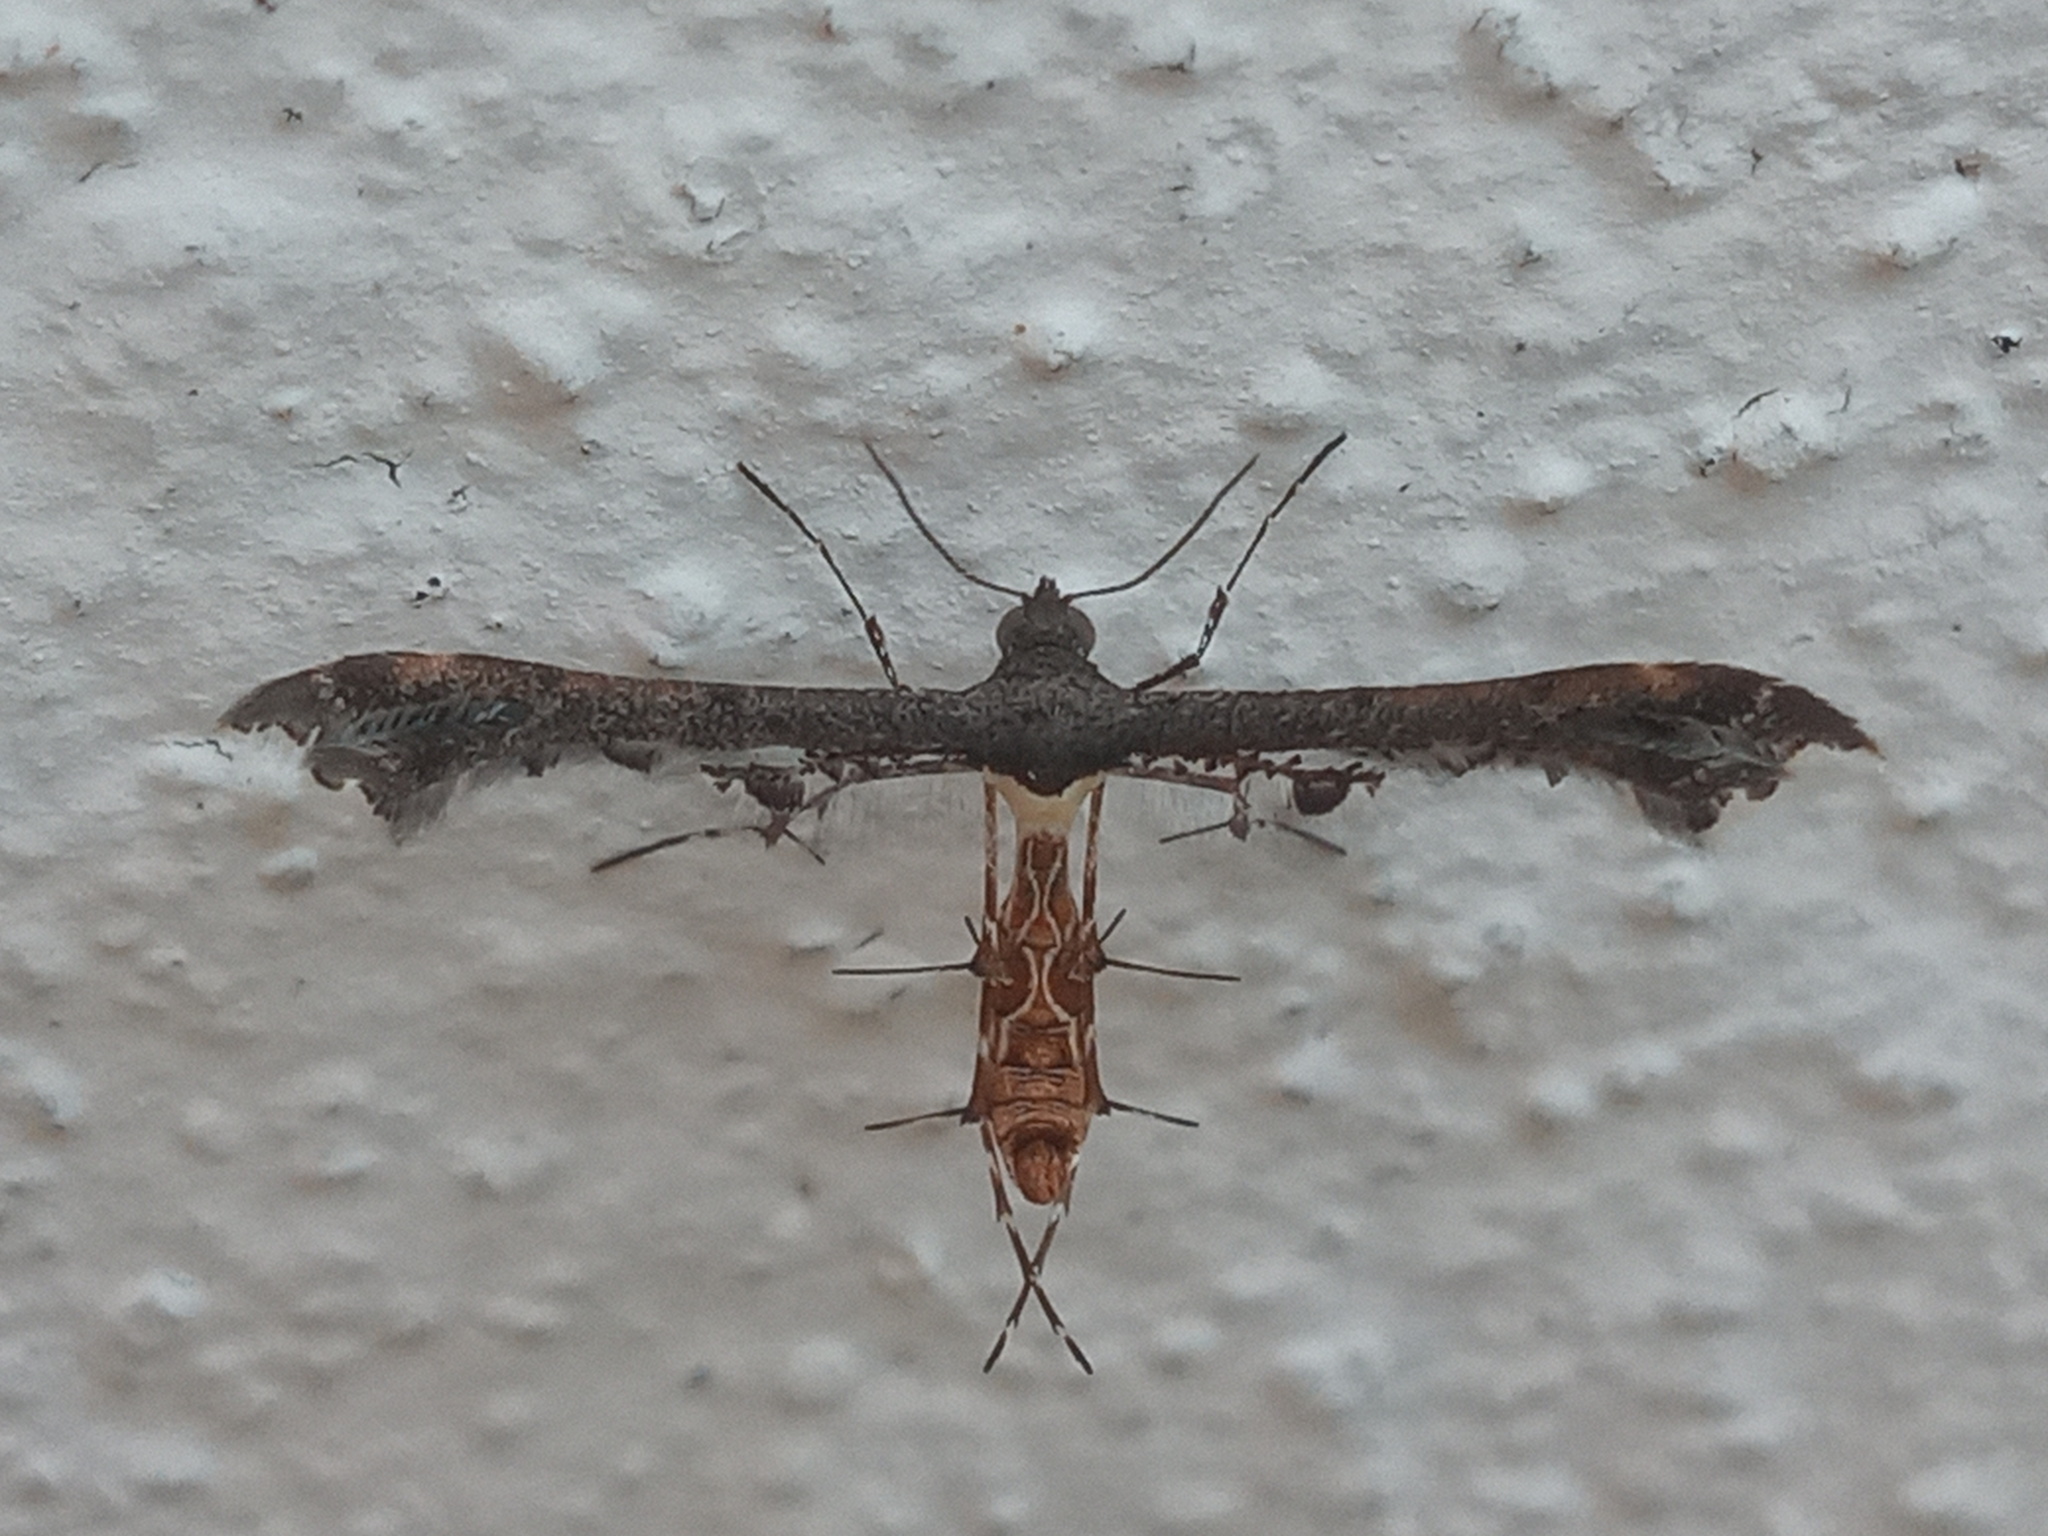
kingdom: Animalia
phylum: Arthropoda
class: Insecta
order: Lepidoptera
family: Pterophoridae
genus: Michaelophorus
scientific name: Michaelophorus indentatus
